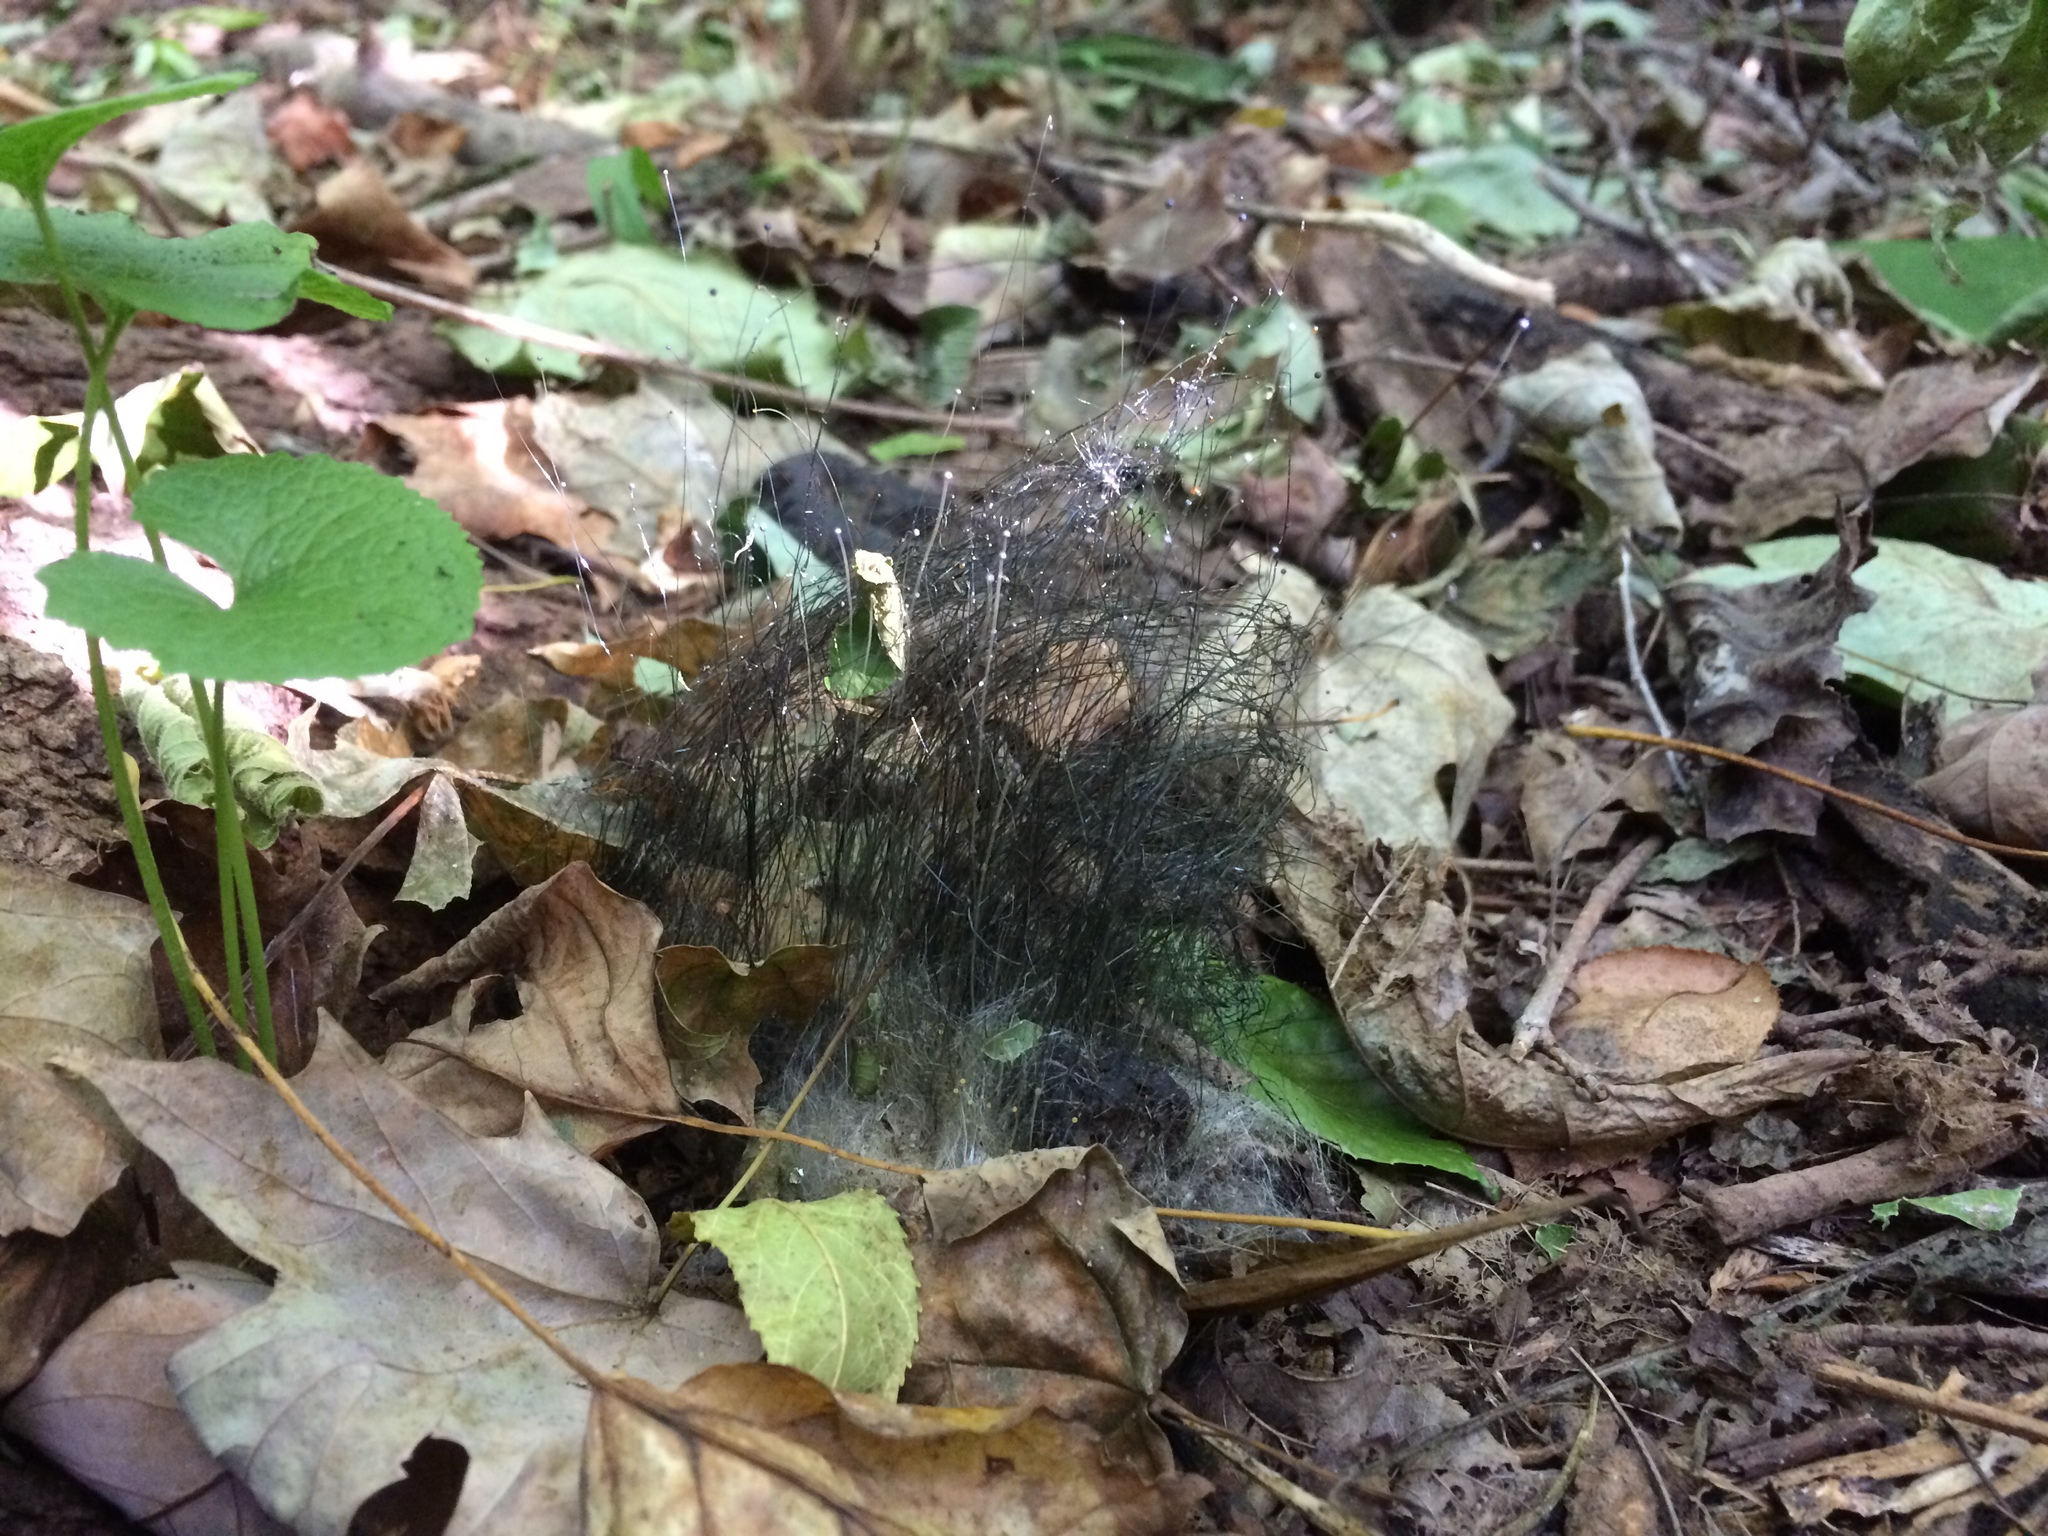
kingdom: Fungi
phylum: Mucoromycota
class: Mucoromycetes
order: Mucorales
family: Phycomycetaceae
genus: Phycomyces
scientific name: Phycomyces blakesleeanus
